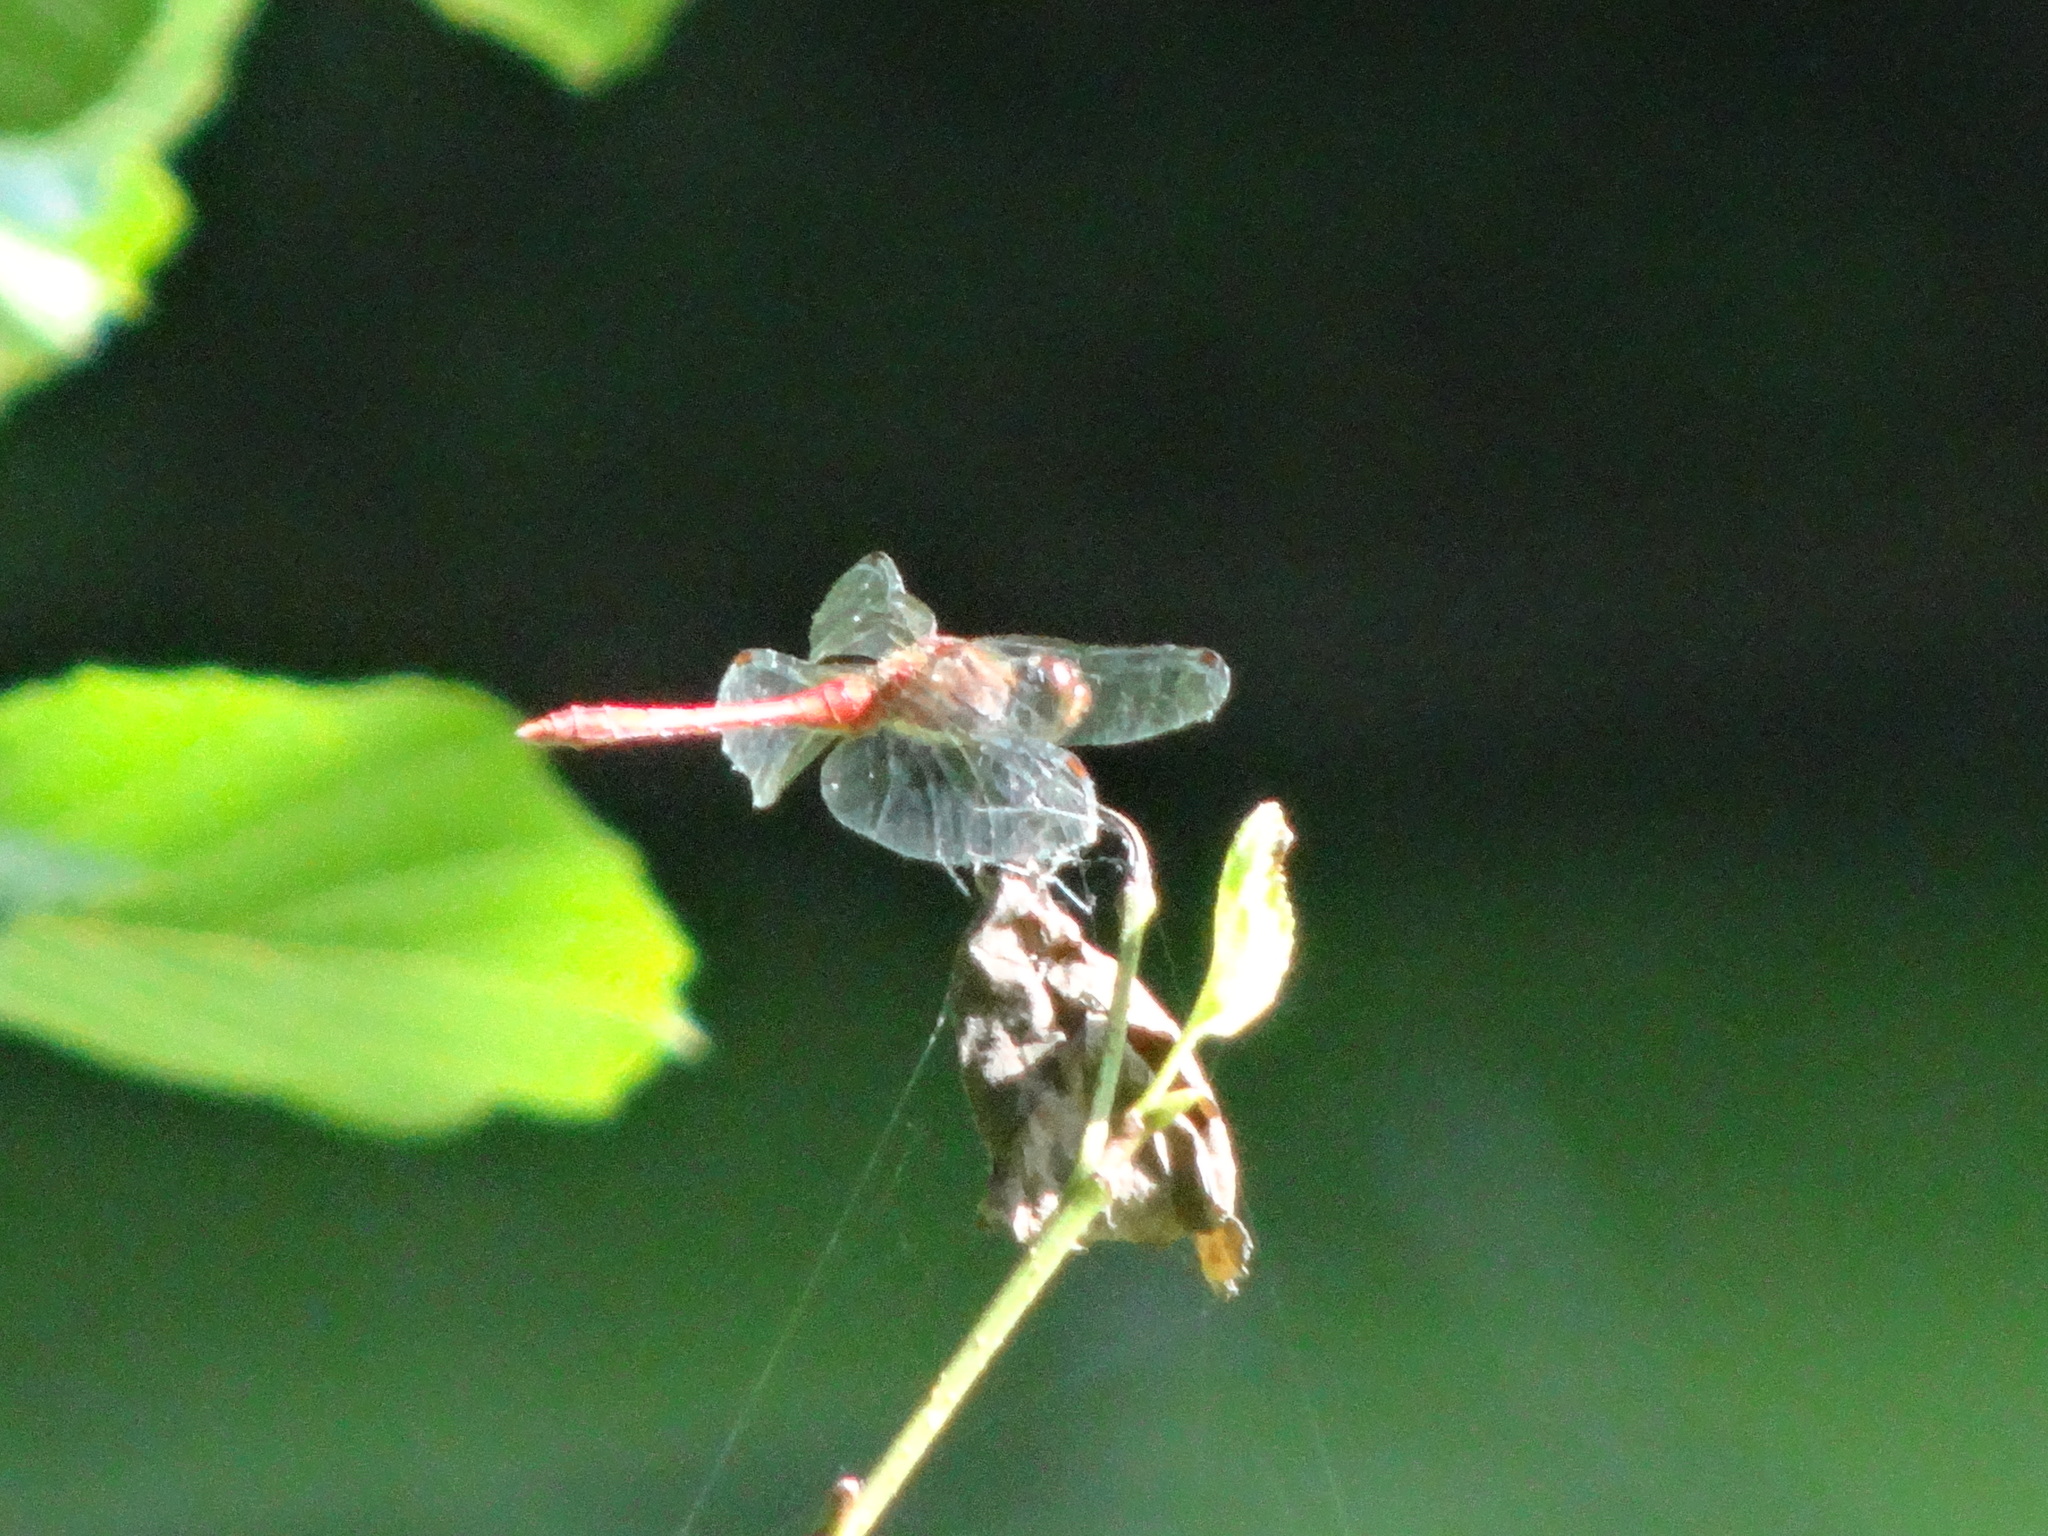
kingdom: Animalia
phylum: Arthropoda
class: Insecta
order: Odonata
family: Libellulidae
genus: Sympetrum
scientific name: Sympetrum sanguineum
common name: Ruddy darter
